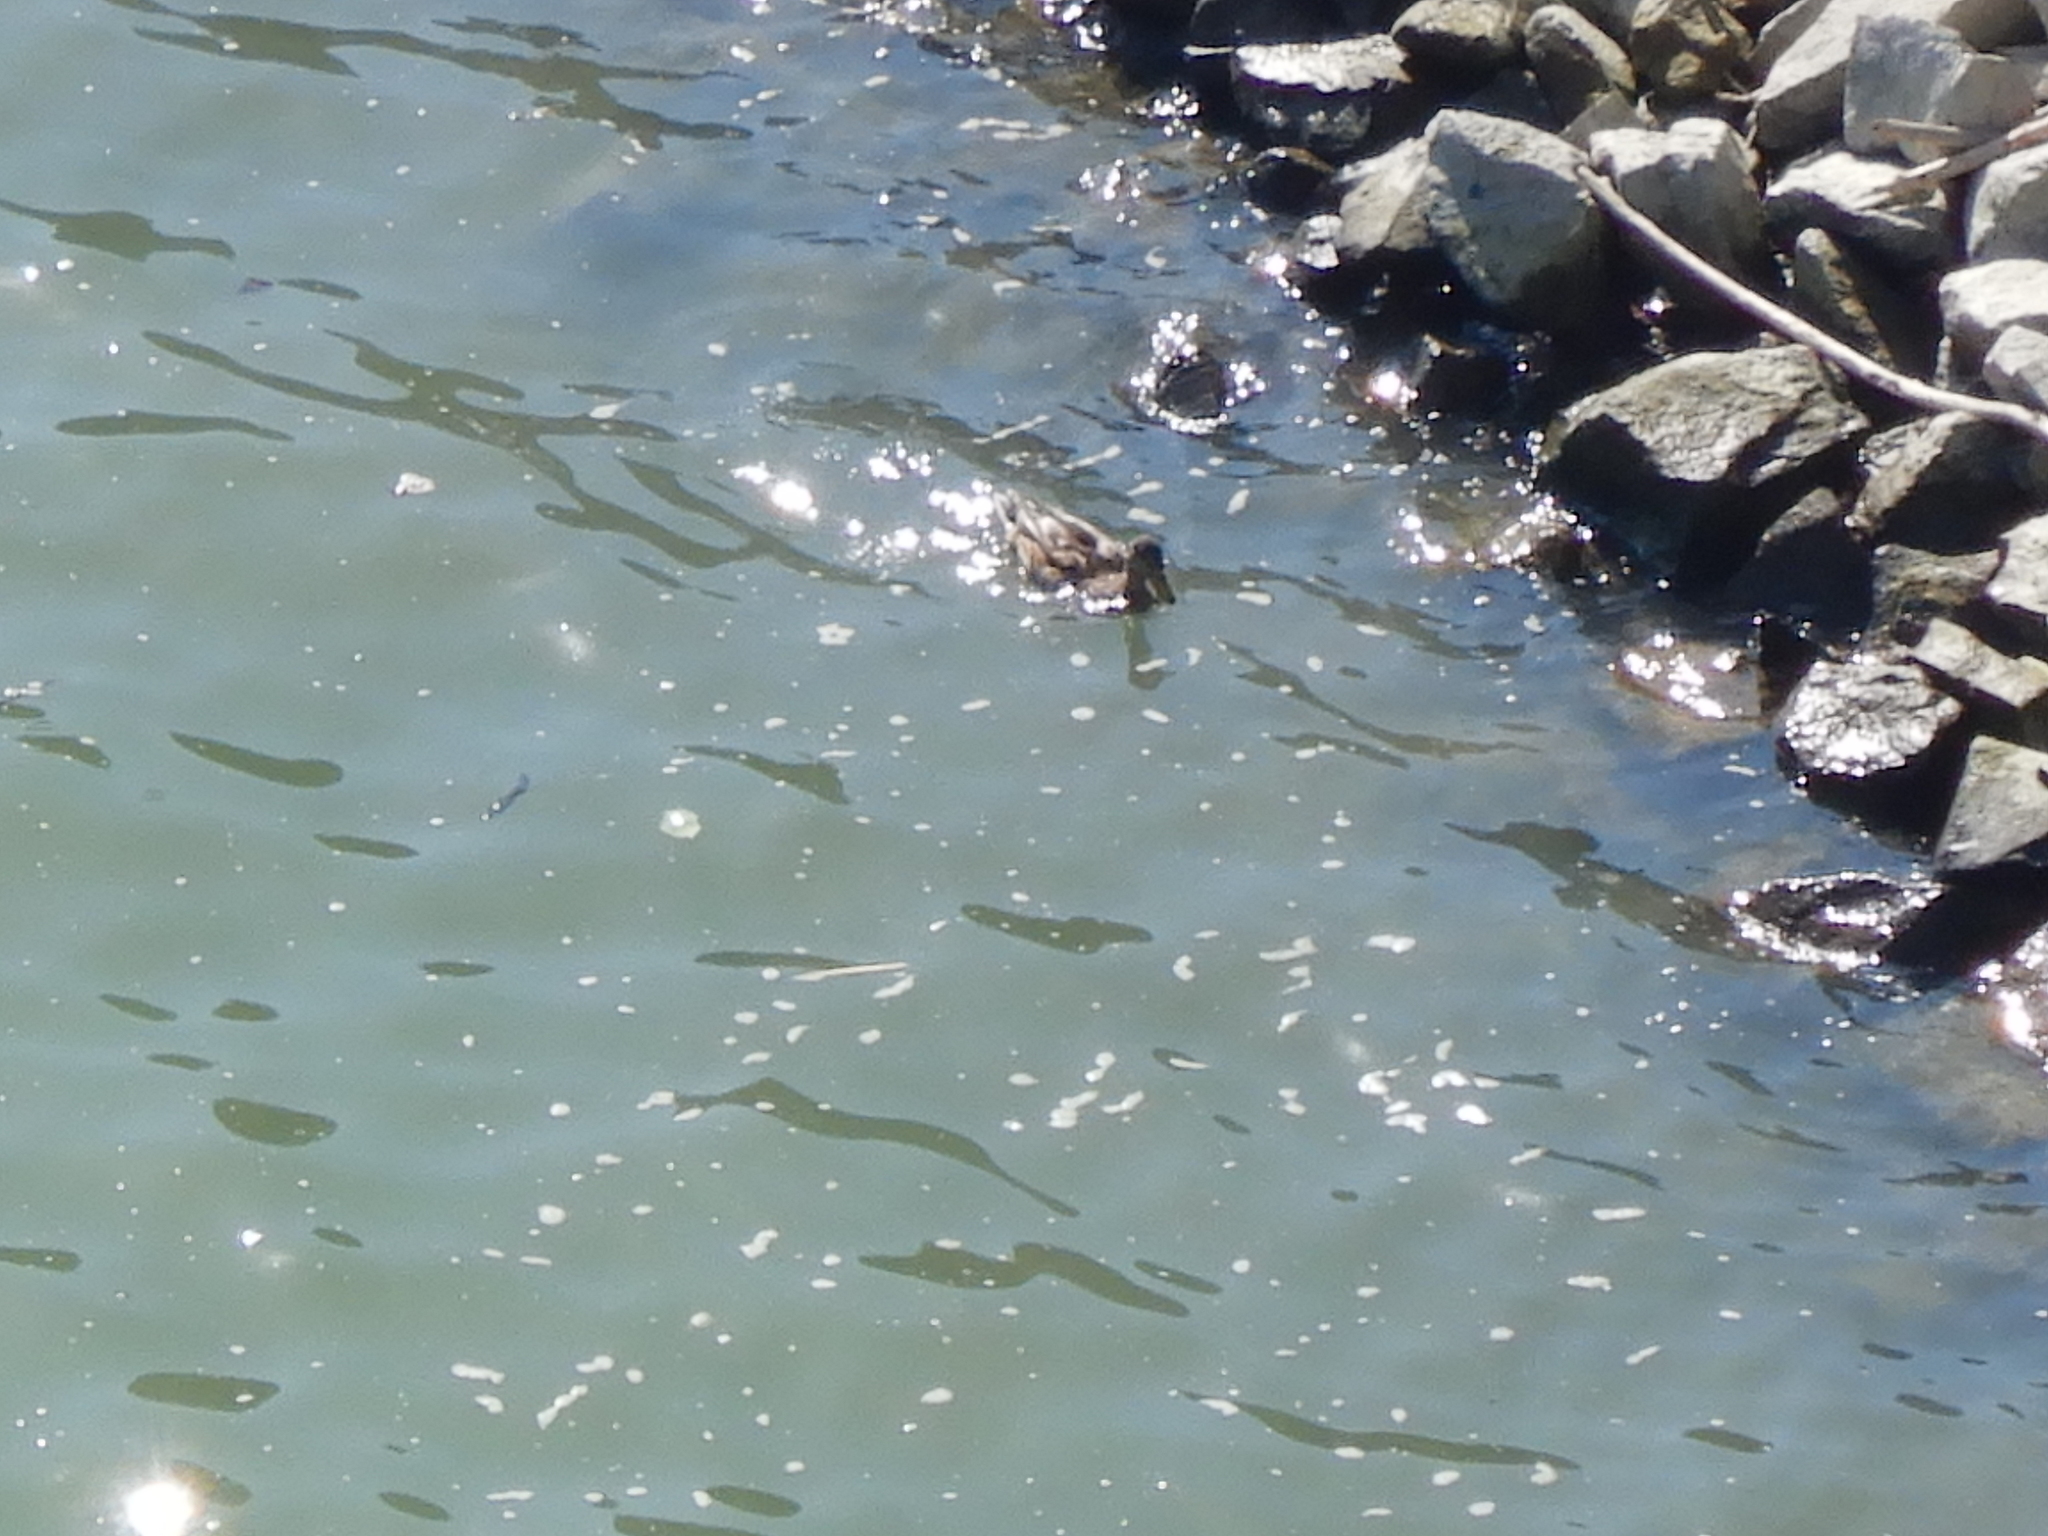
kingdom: Animalia
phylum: Chordata
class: Aves
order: Anseriformes
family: Anatidae
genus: Anas
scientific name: Anas platyrhynchos
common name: Mallard
